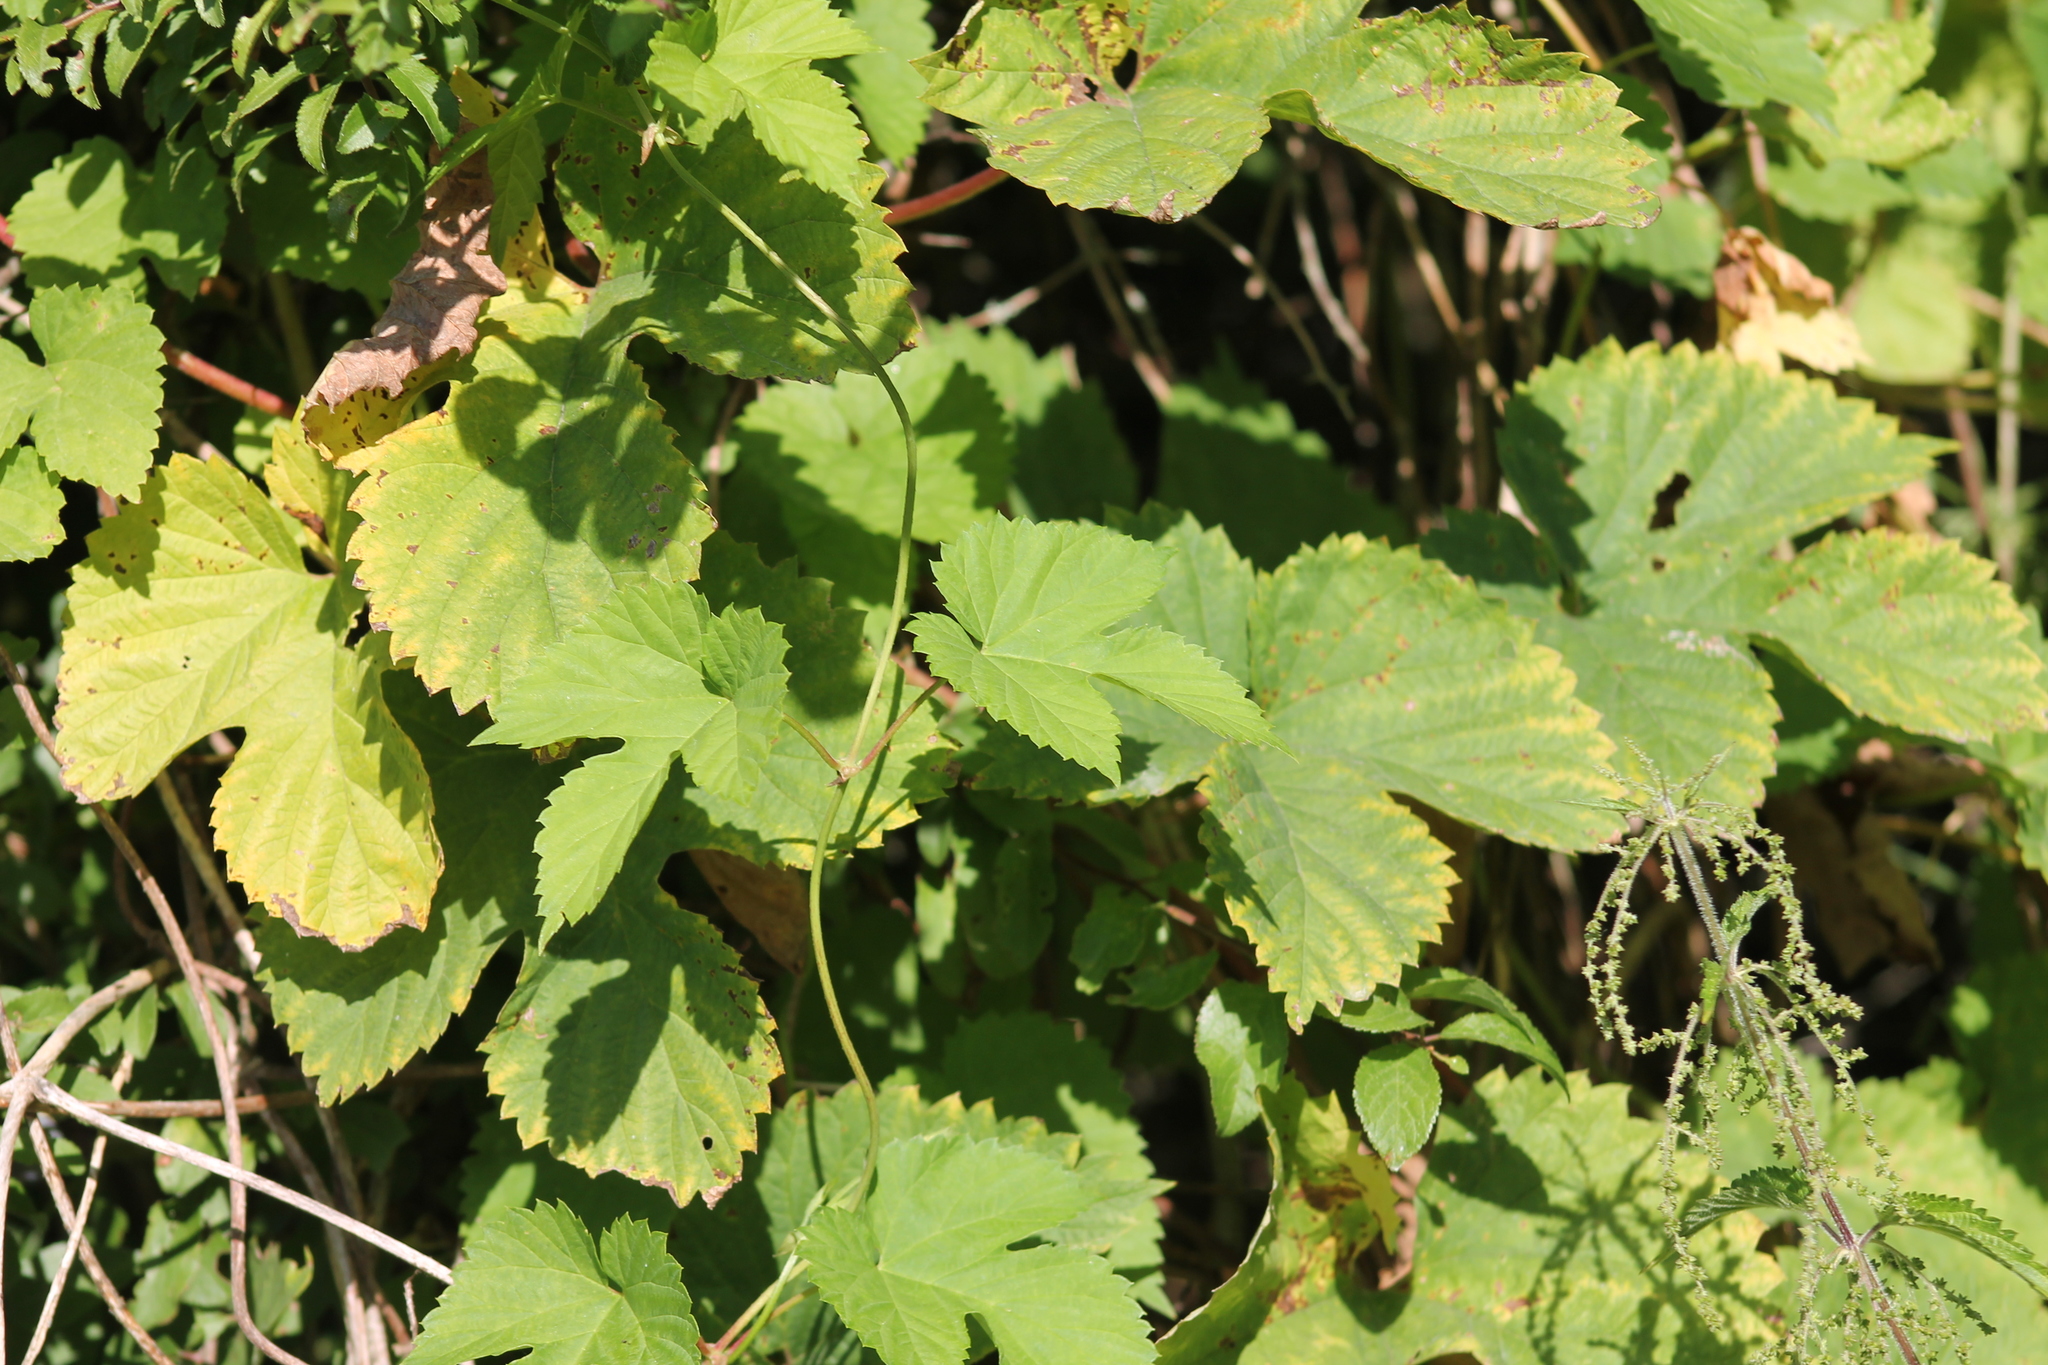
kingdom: Plantae
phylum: Tracheophyta
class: Magnoliopsida
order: Rosales
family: Cannabaceae
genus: Humulus
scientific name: Humulus lupulus
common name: Hop
